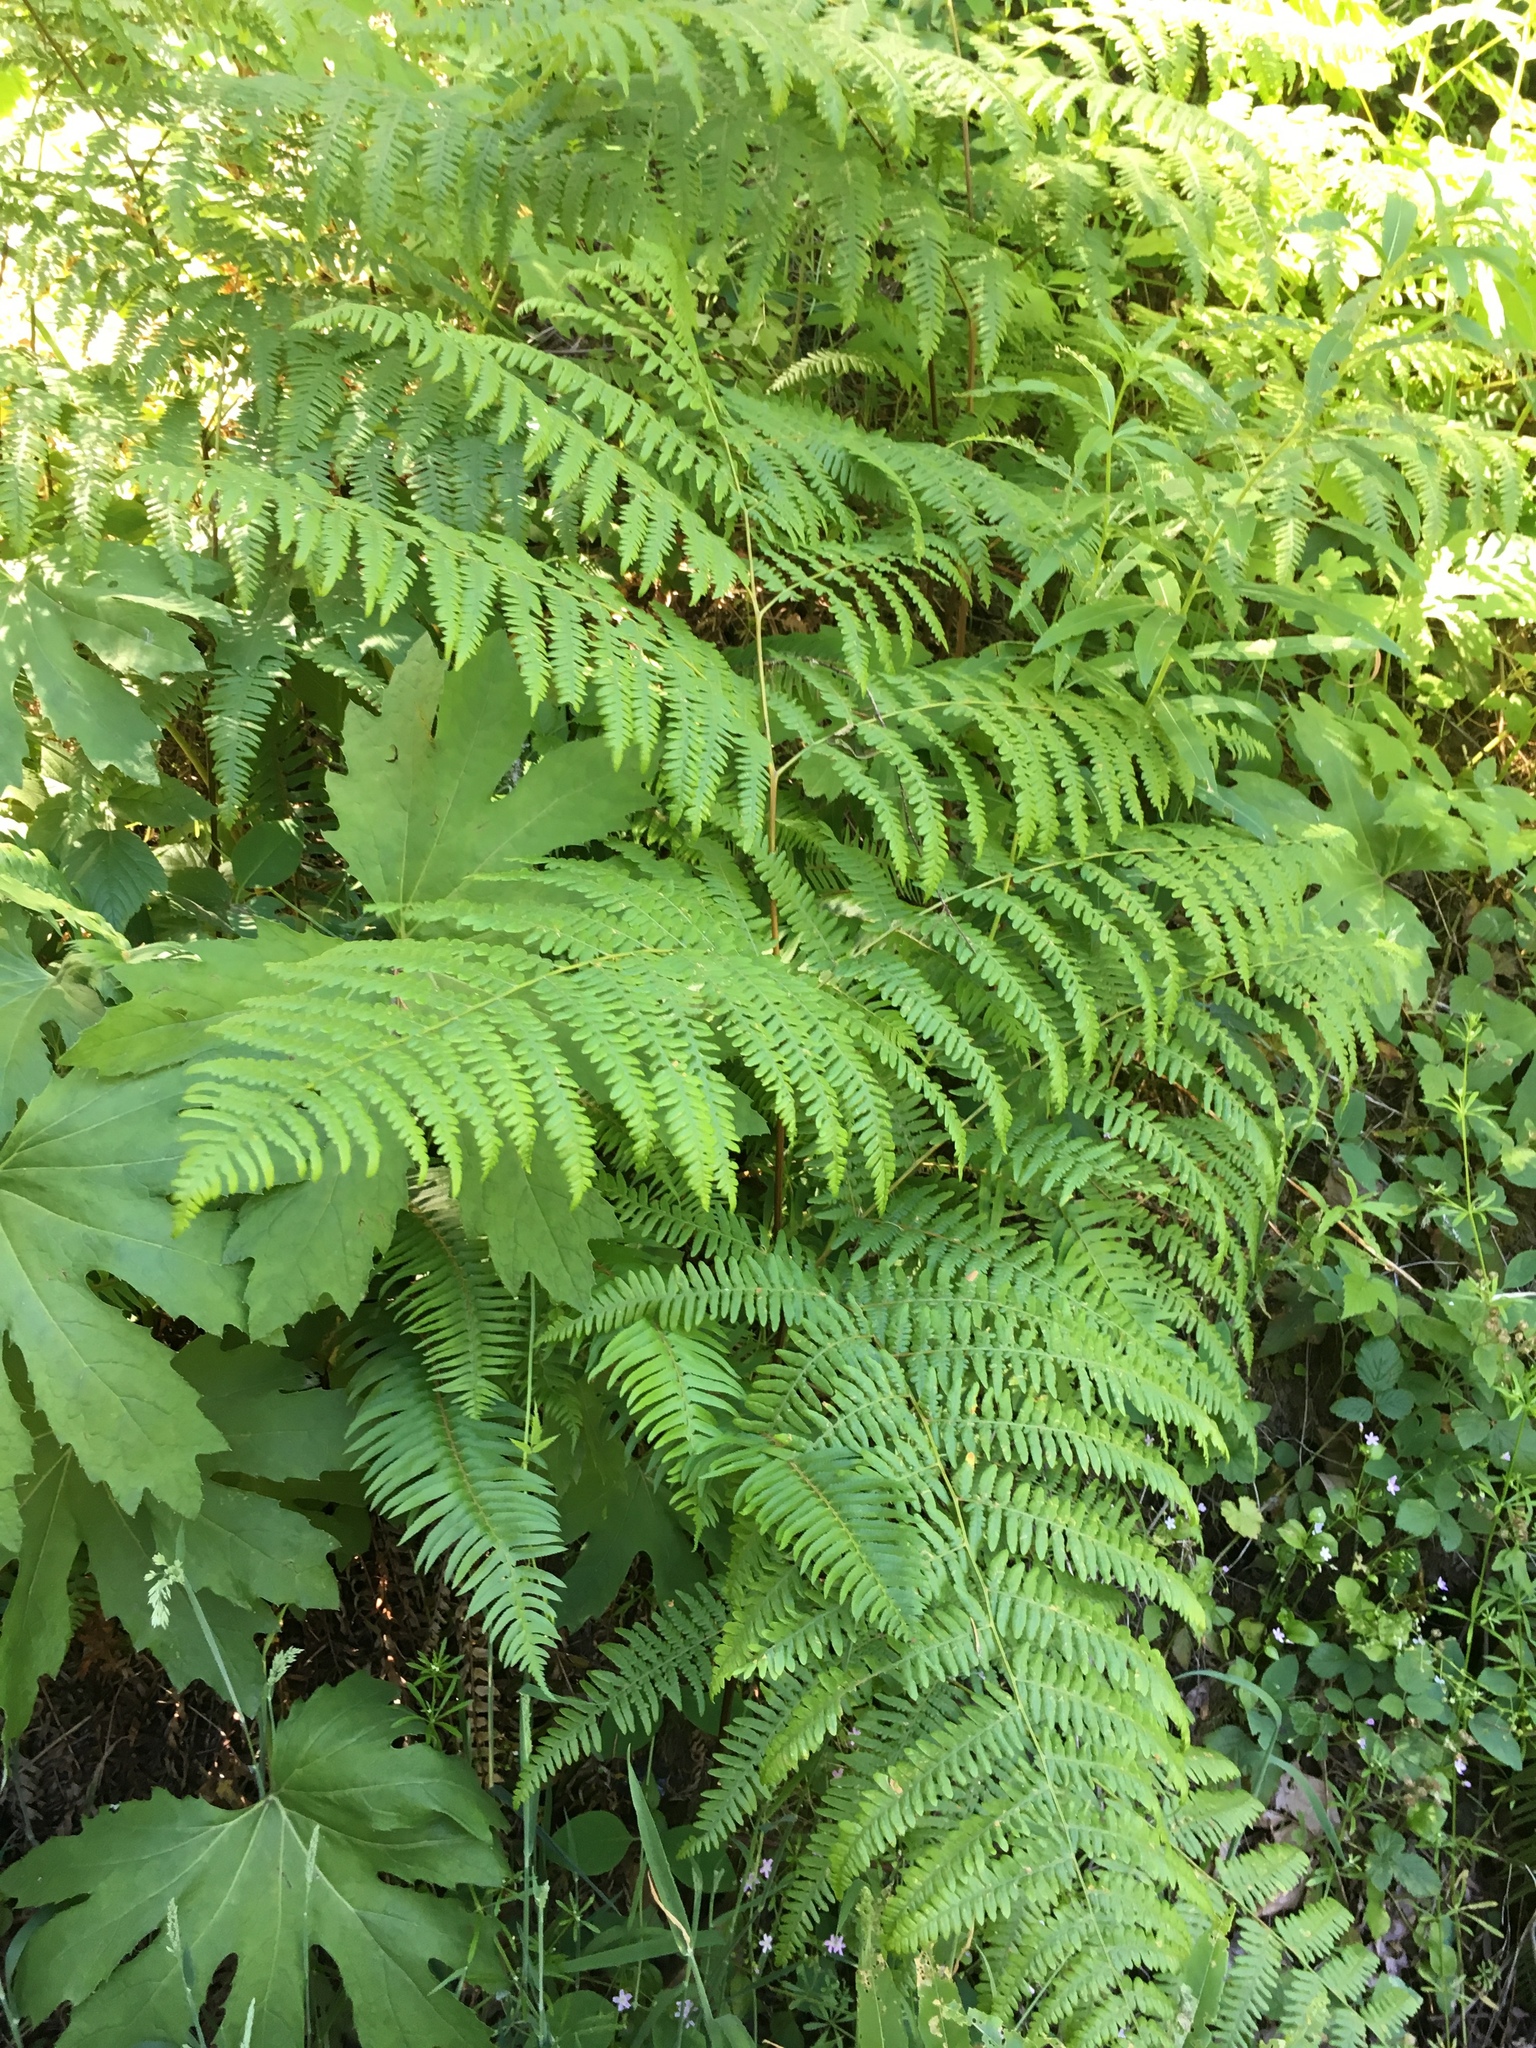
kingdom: Plantae
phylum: Tracheophyta
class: Polypodiopsida
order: Polypodiales
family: Dennstaedtiaceae
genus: Pteridium
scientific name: Pteridium aquilinum
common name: Bracken
